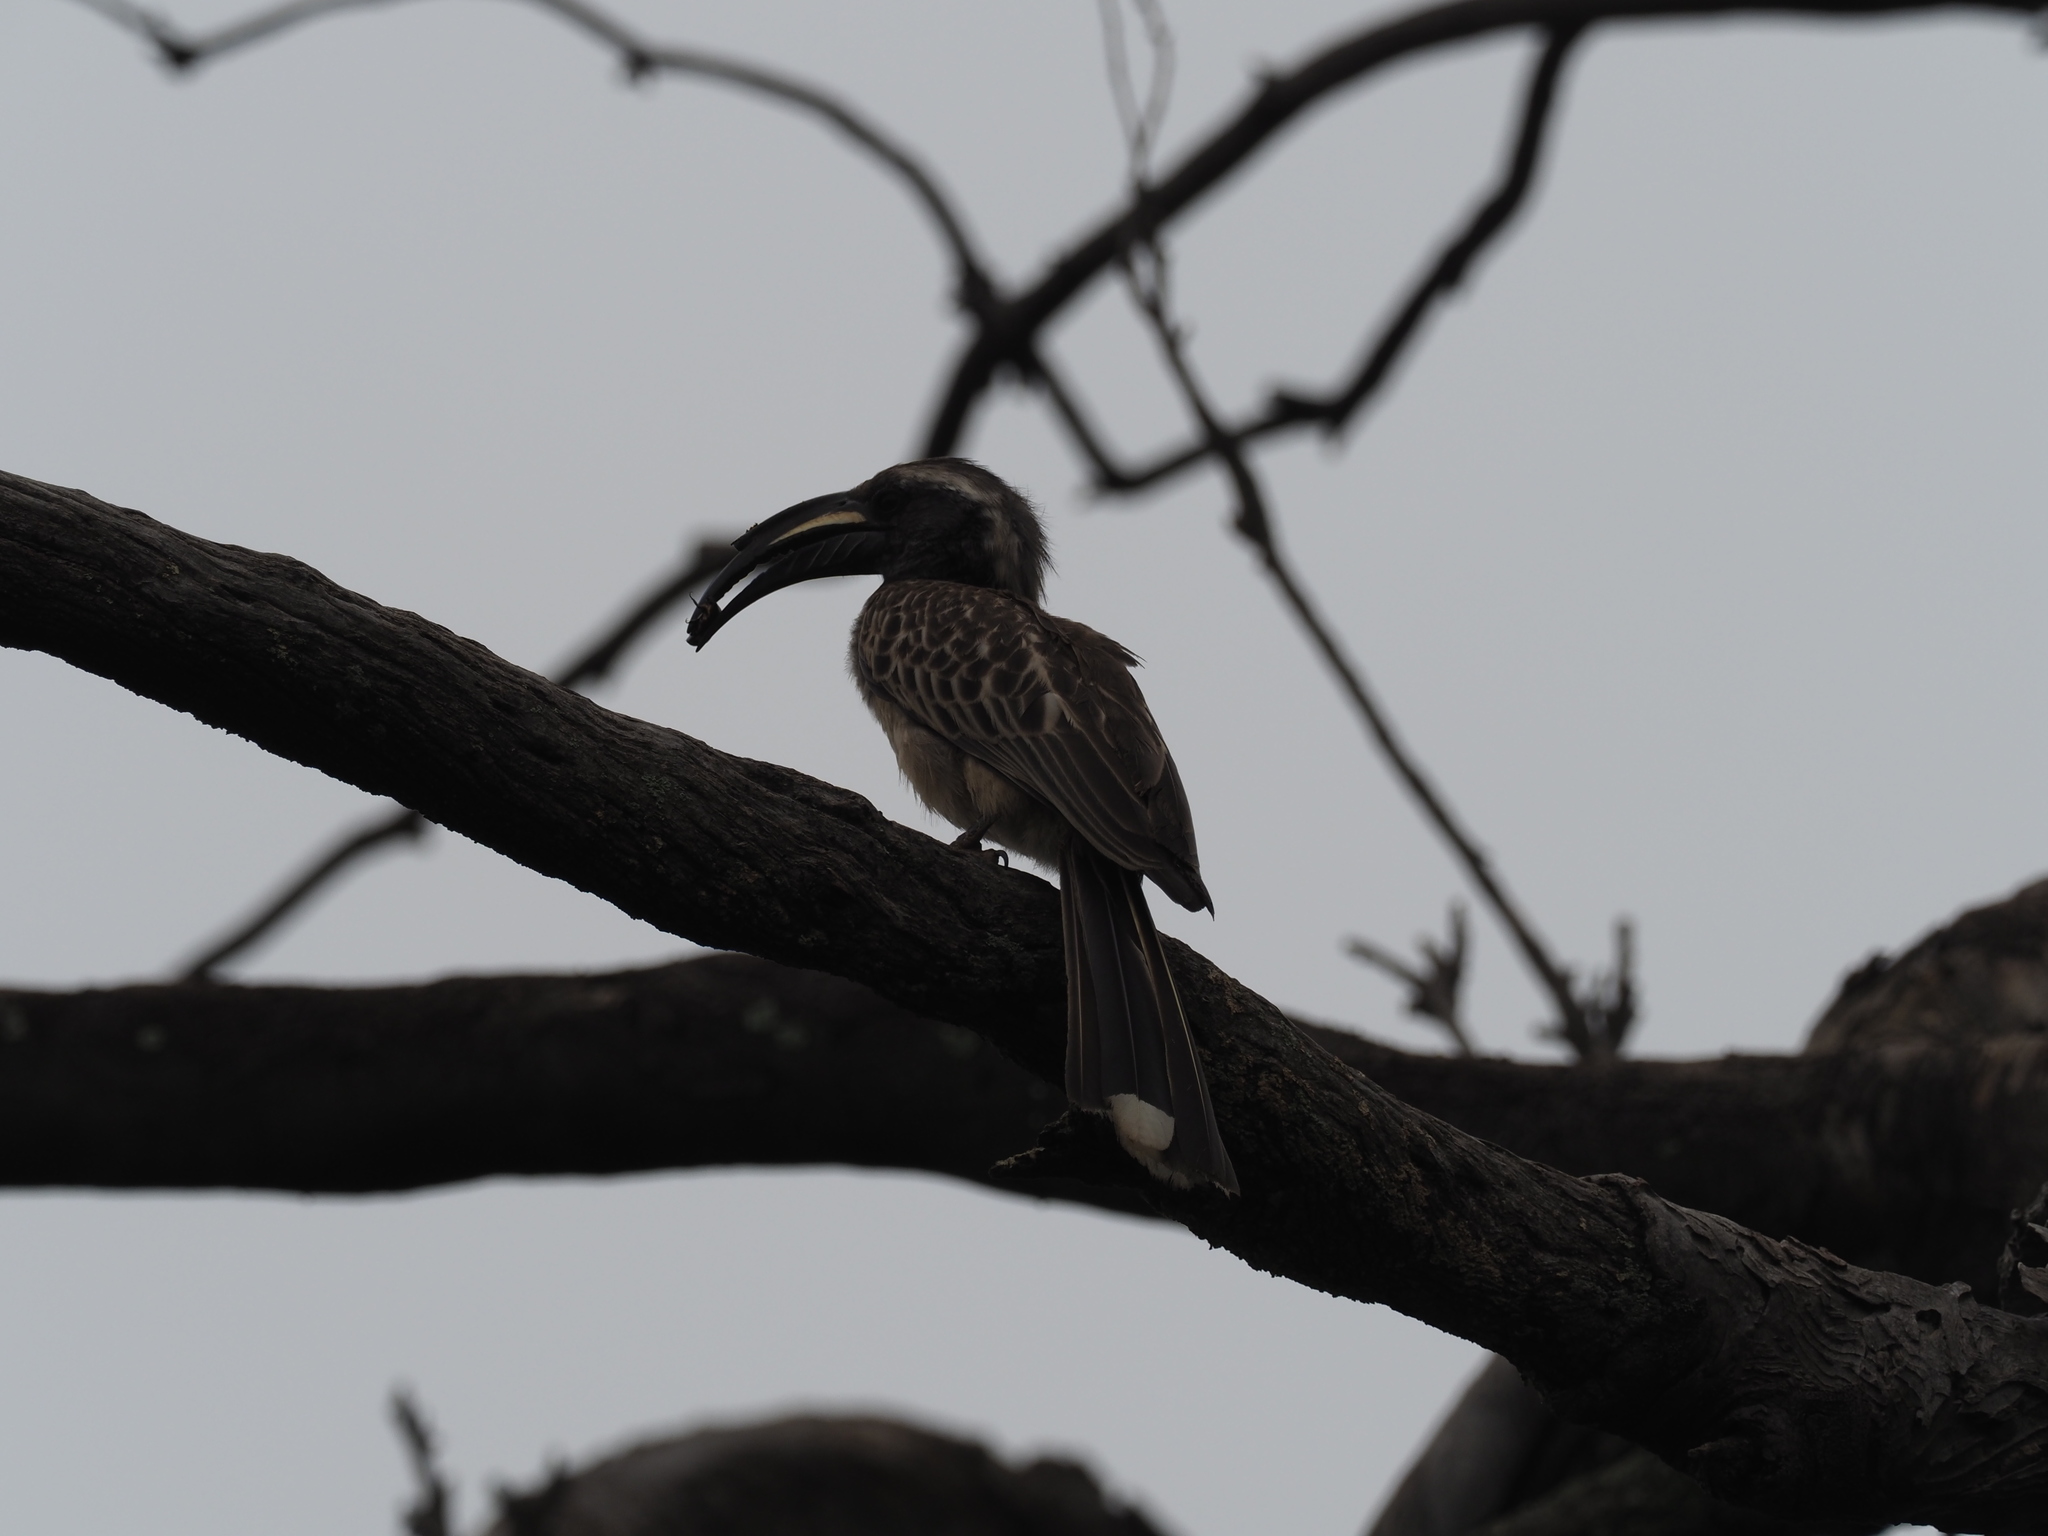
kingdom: Animalia
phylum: Chordata
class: Aves
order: Bucerotiformes
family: Bucerotidae
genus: Lophoceros
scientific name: Lophoceros nasutus
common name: African grey hornbill
